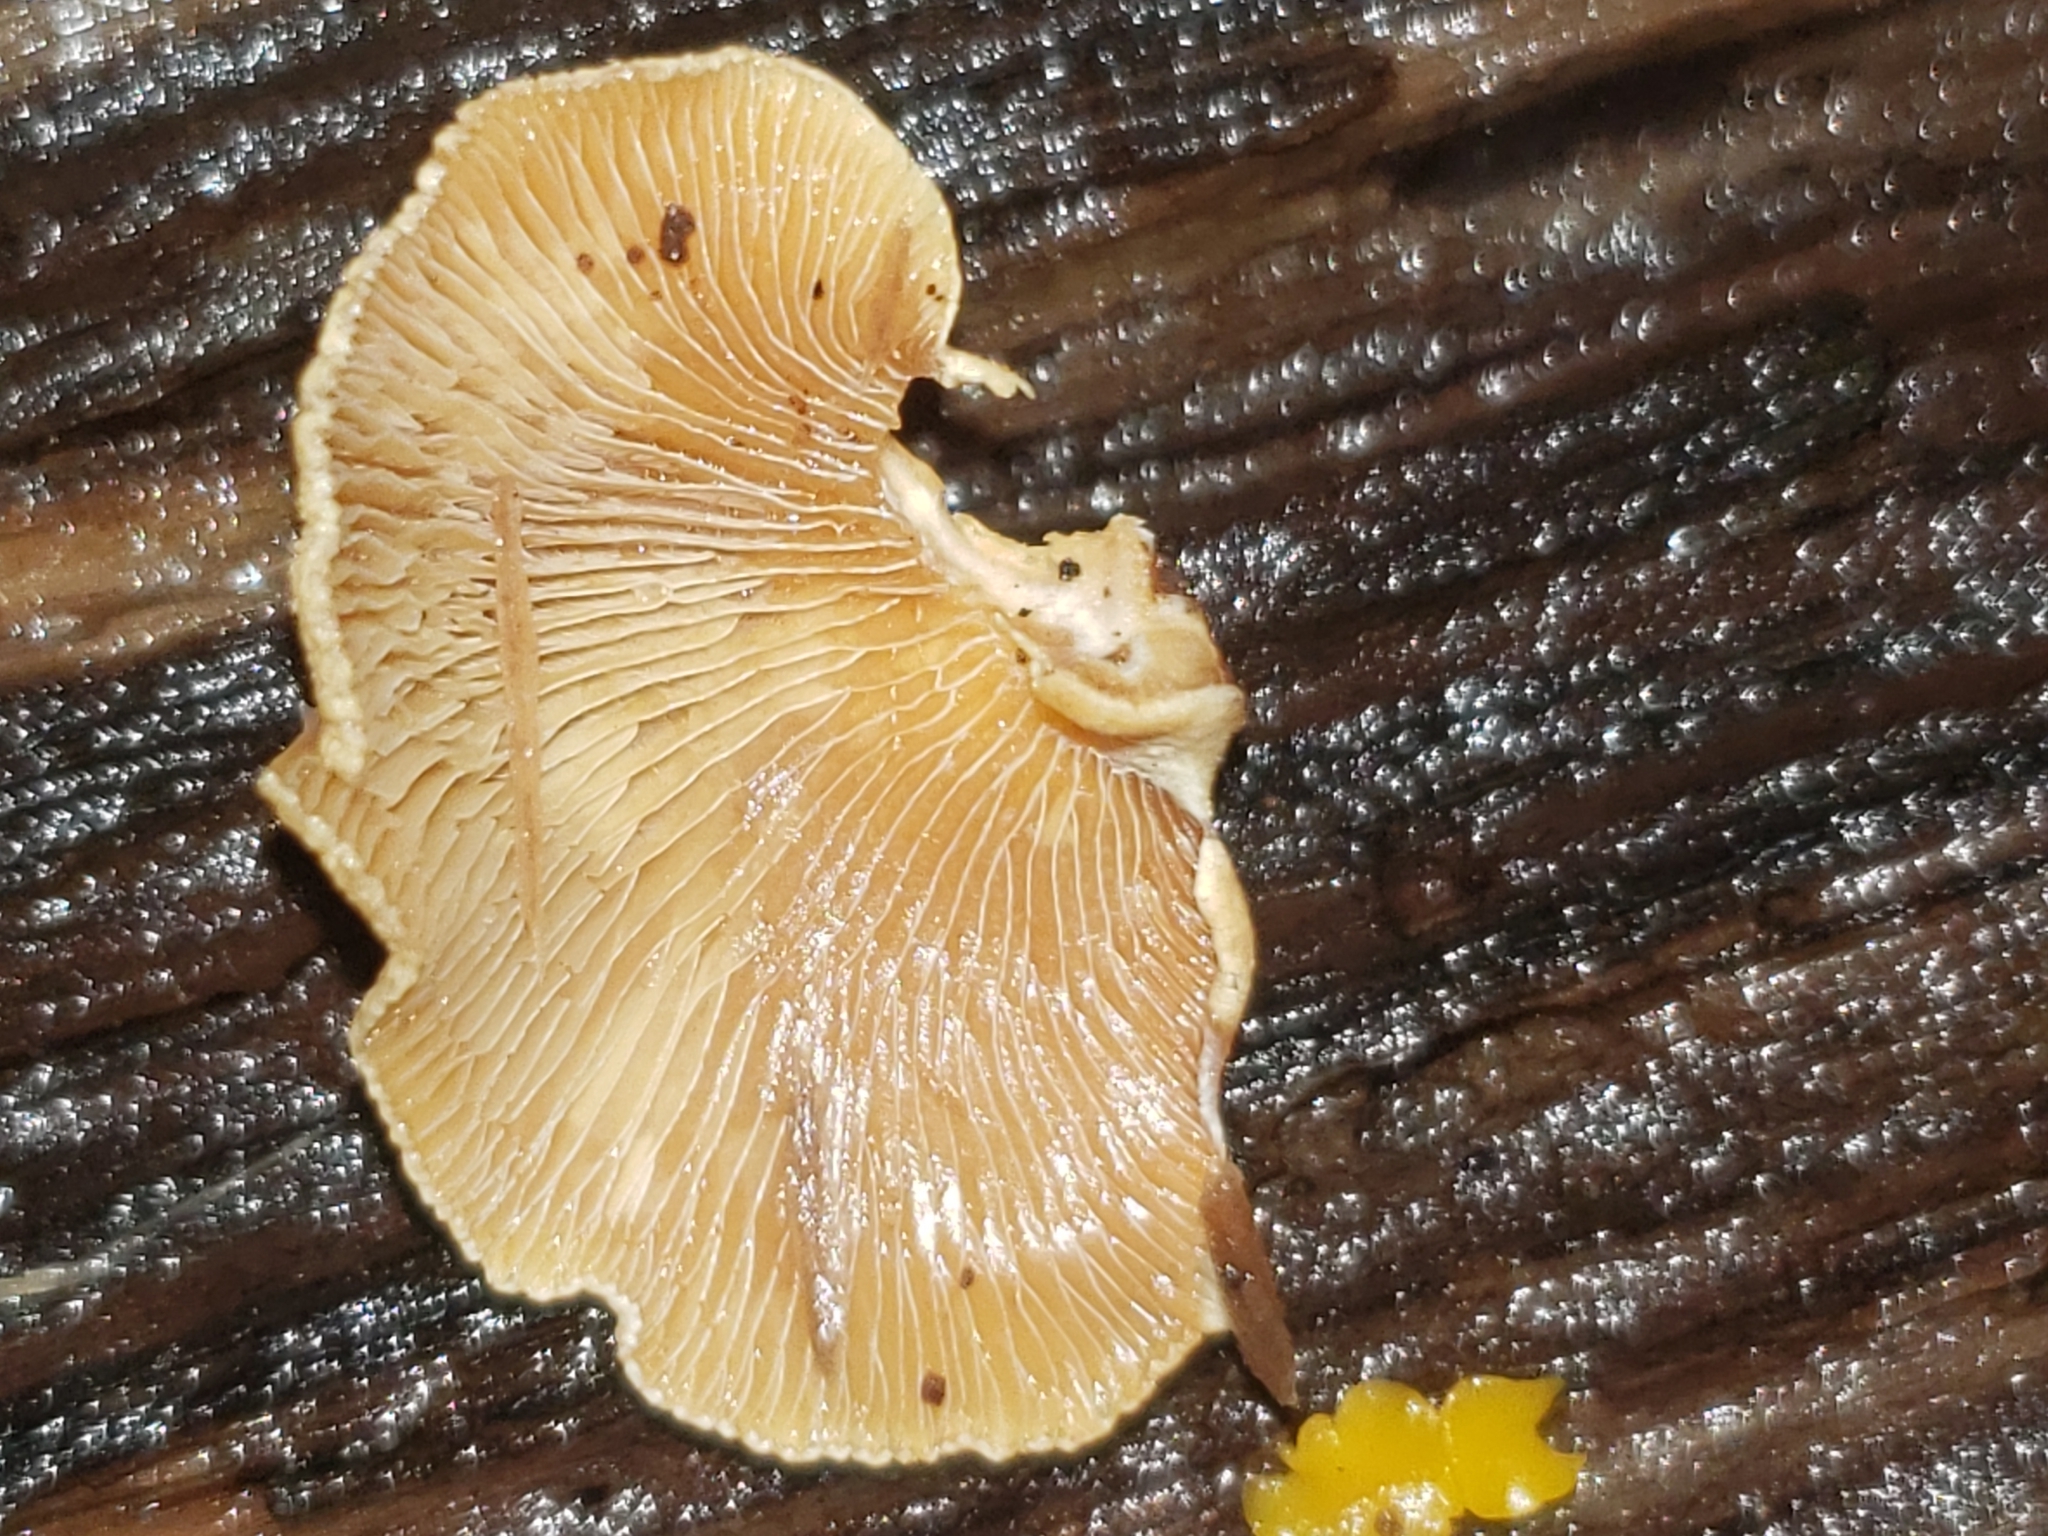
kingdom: Fungi
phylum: Basidiomycota
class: Agaricomycetes
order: Agaricales
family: Mycenaceae
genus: Panellus
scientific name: Panellus stipticus
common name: Bitter oysterling
